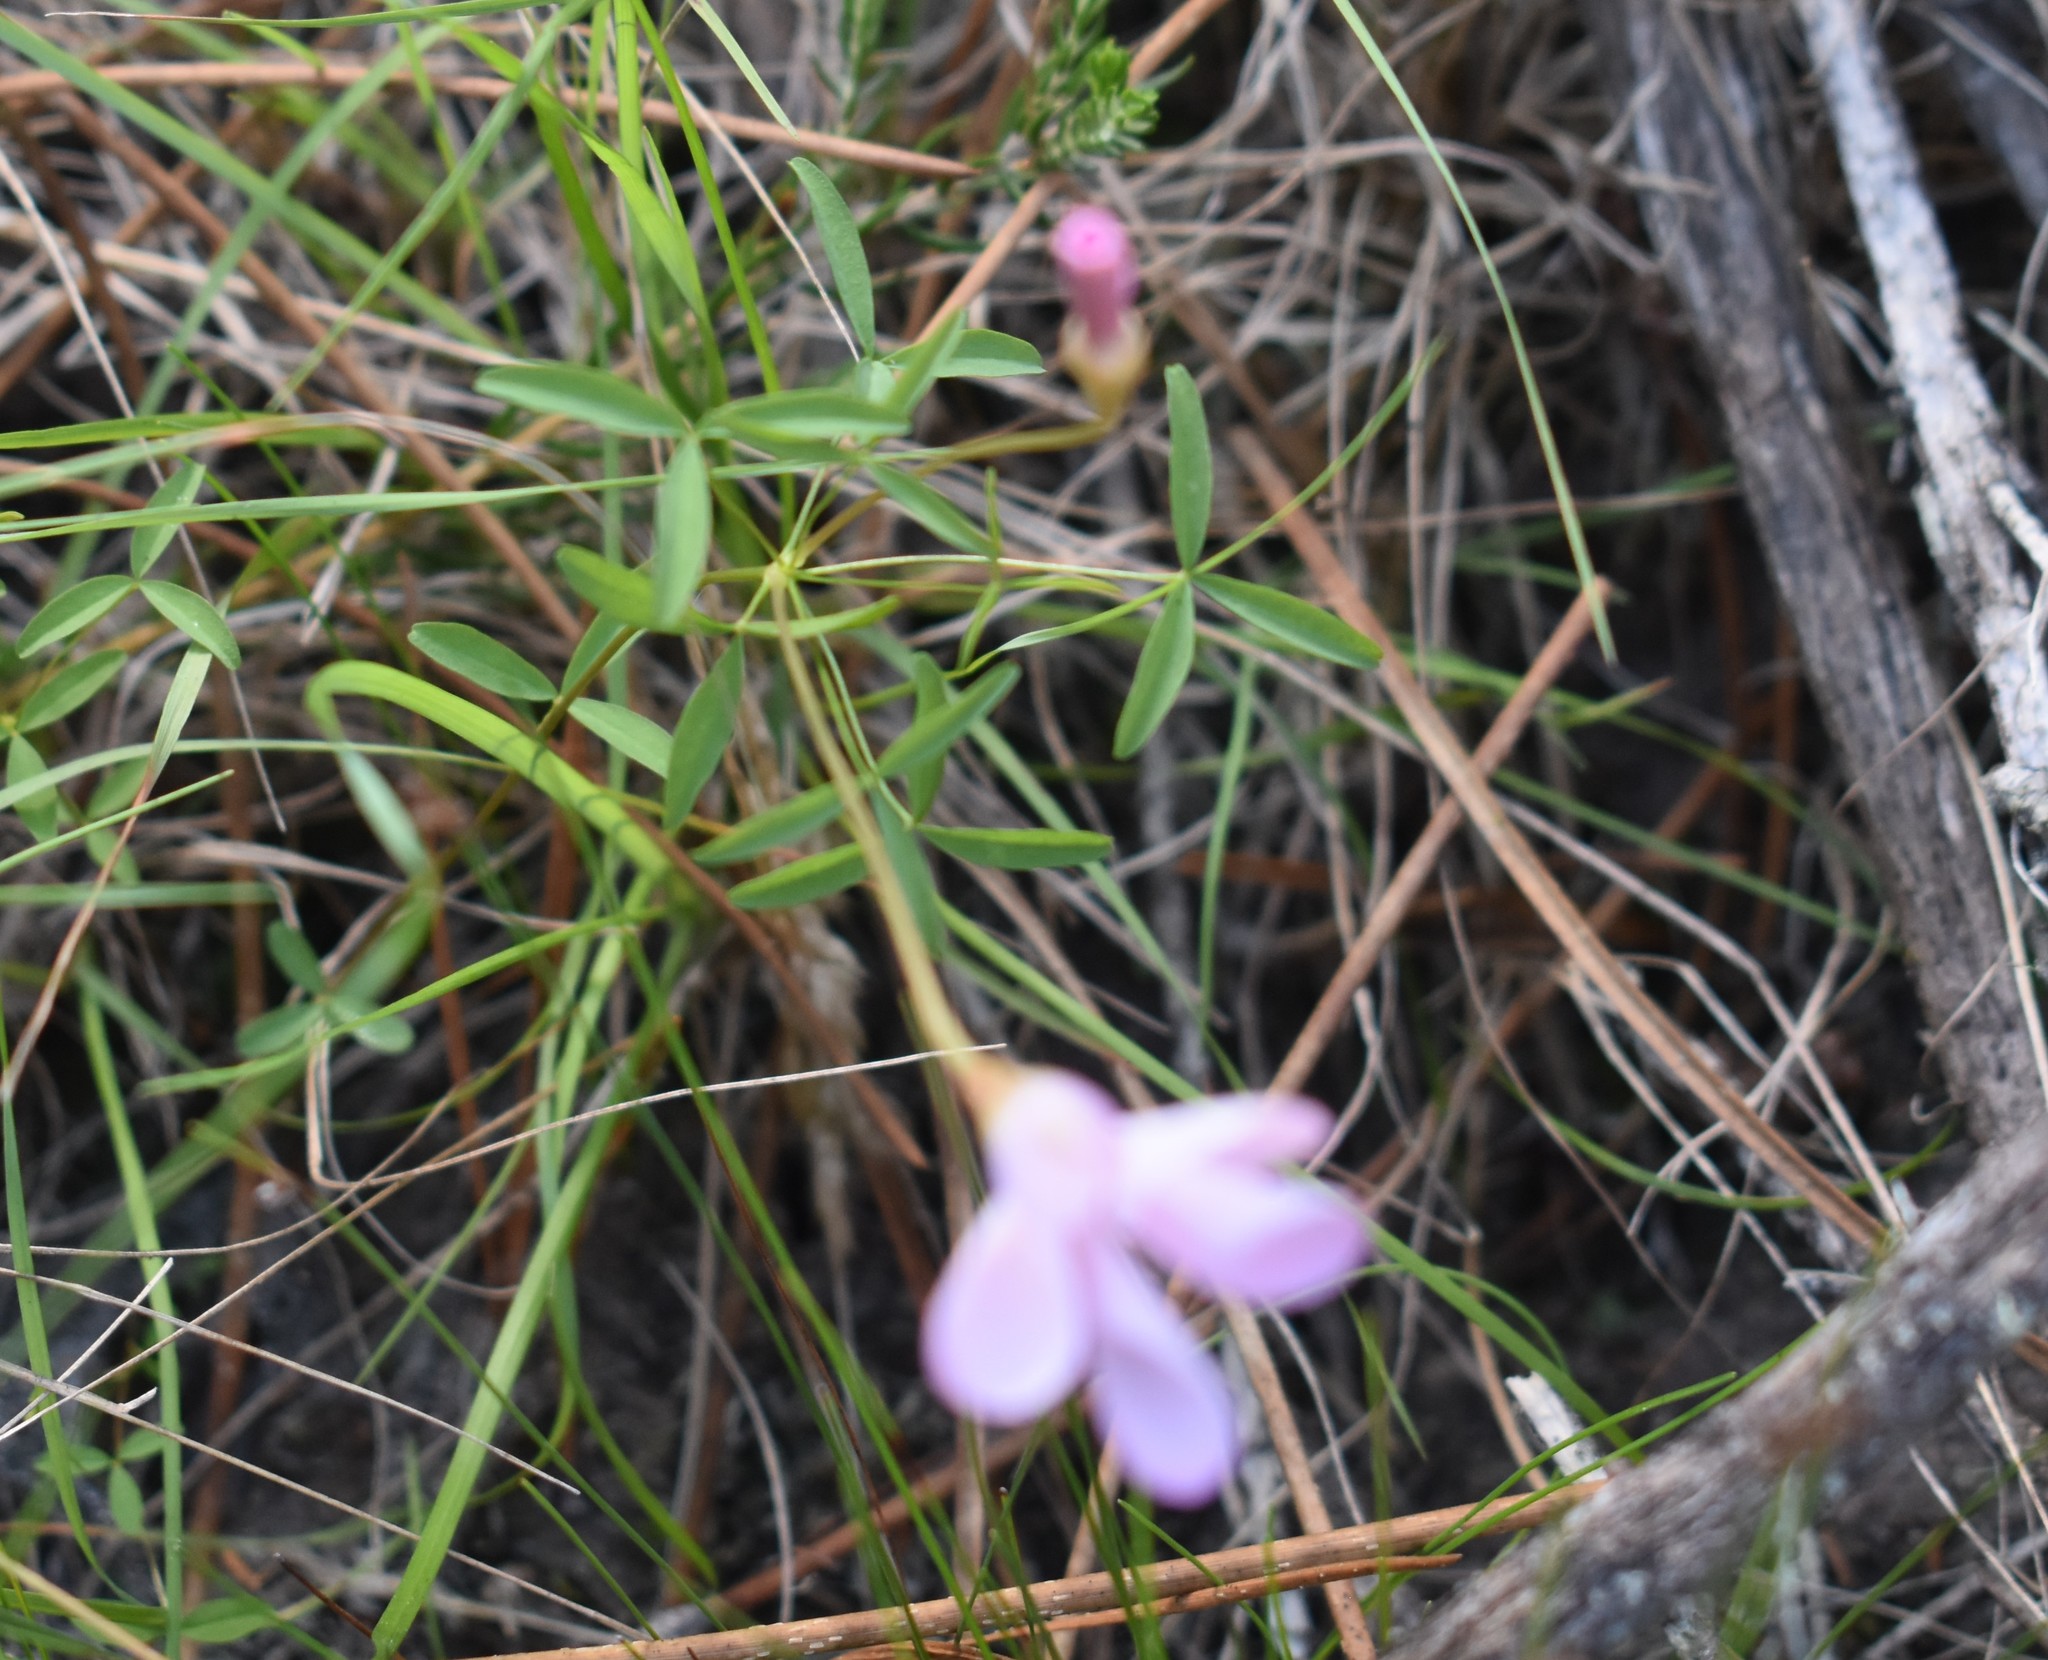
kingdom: Plantae
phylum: Tracheophyta
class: Magnoliopsida
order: Oxalidales
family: Oxalidaceae
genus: Oxalis
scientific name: Oxalis ciliaris
